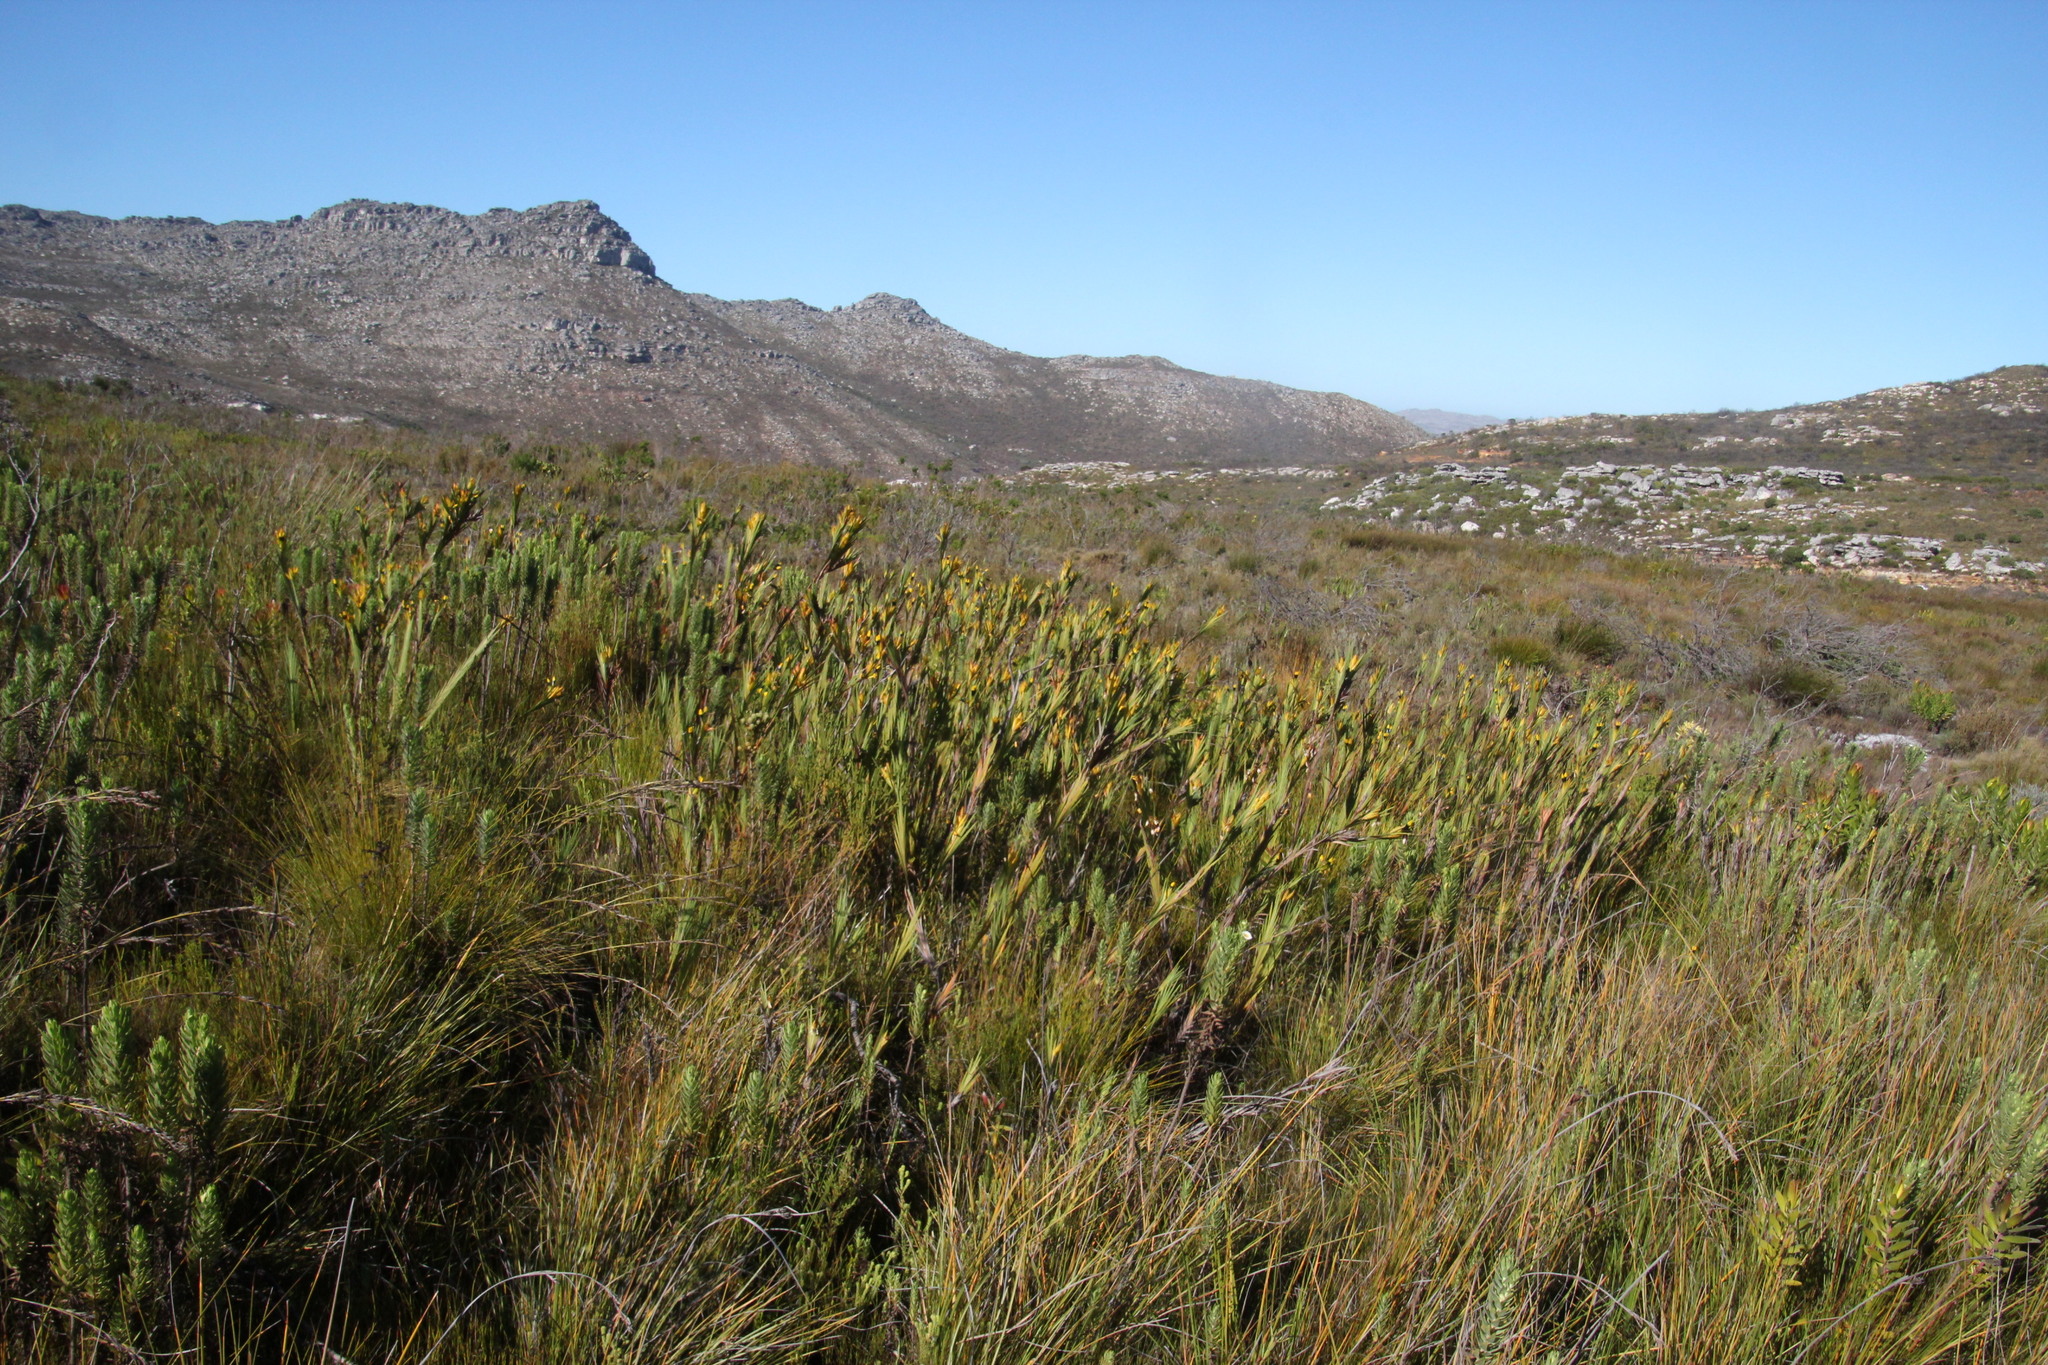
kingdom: Plantae
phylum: Tracheophyta
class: Liliopsida
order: Asparagales
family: Iridaceae
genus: Witsenia
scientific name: Witsenia maura
